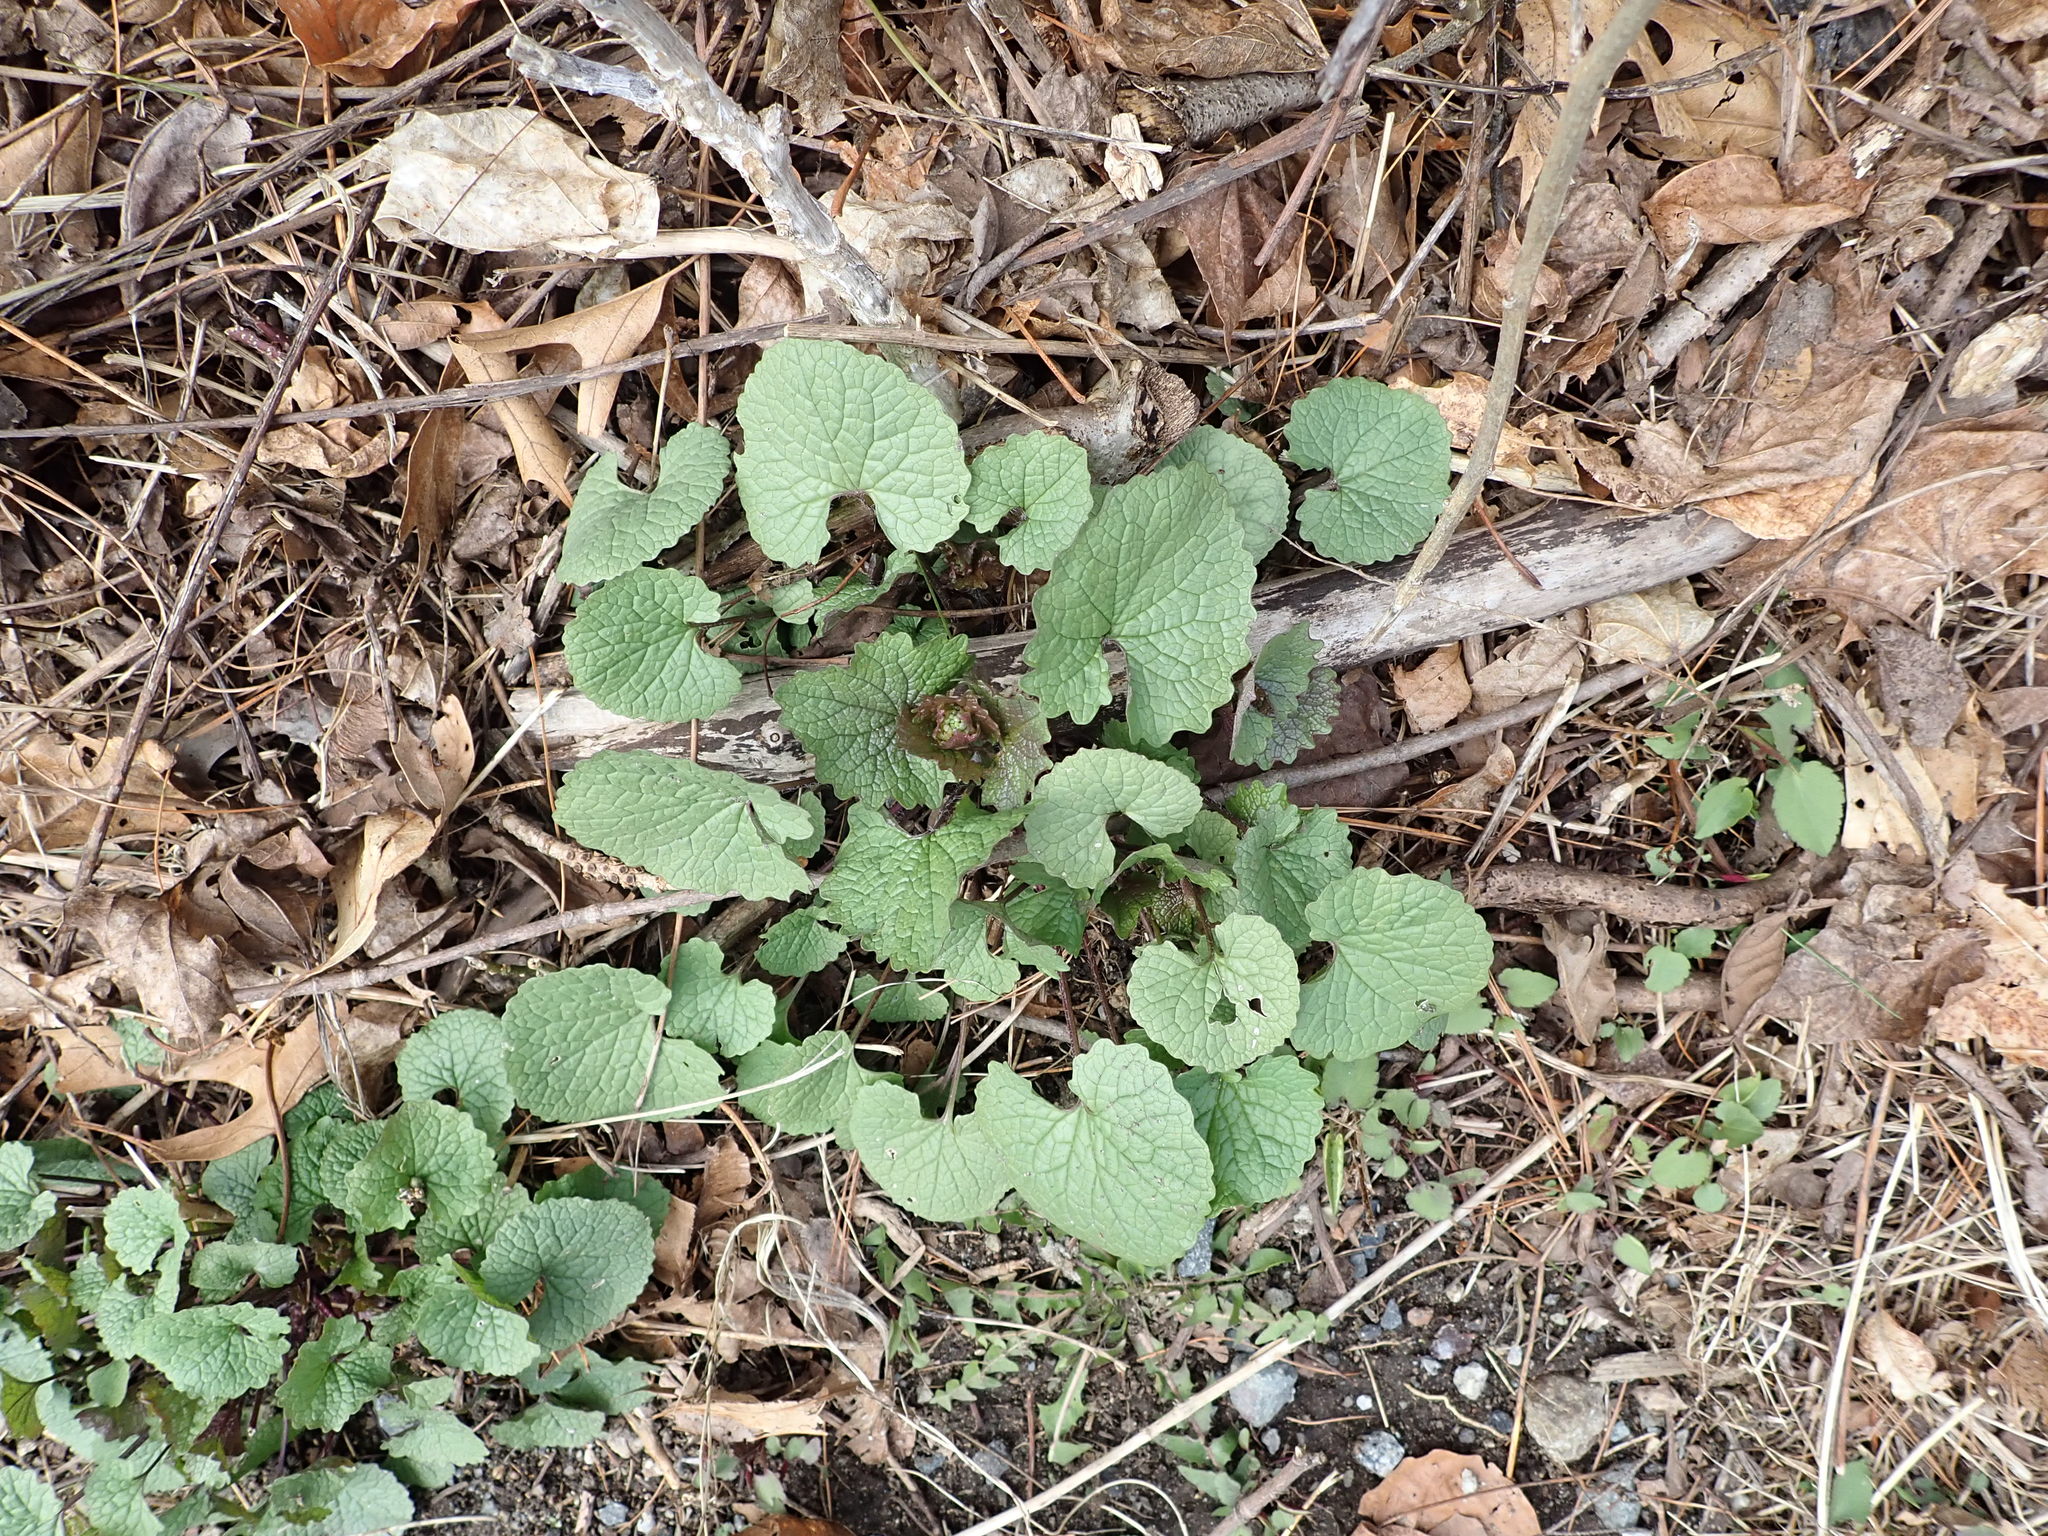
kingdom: Plantae
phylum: Tracheophyta
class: Magnoliopsida
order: Brassicales
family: Brassicaceae
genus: Alliaria
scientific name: Alliaria petiolata
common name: Garlic mustard
